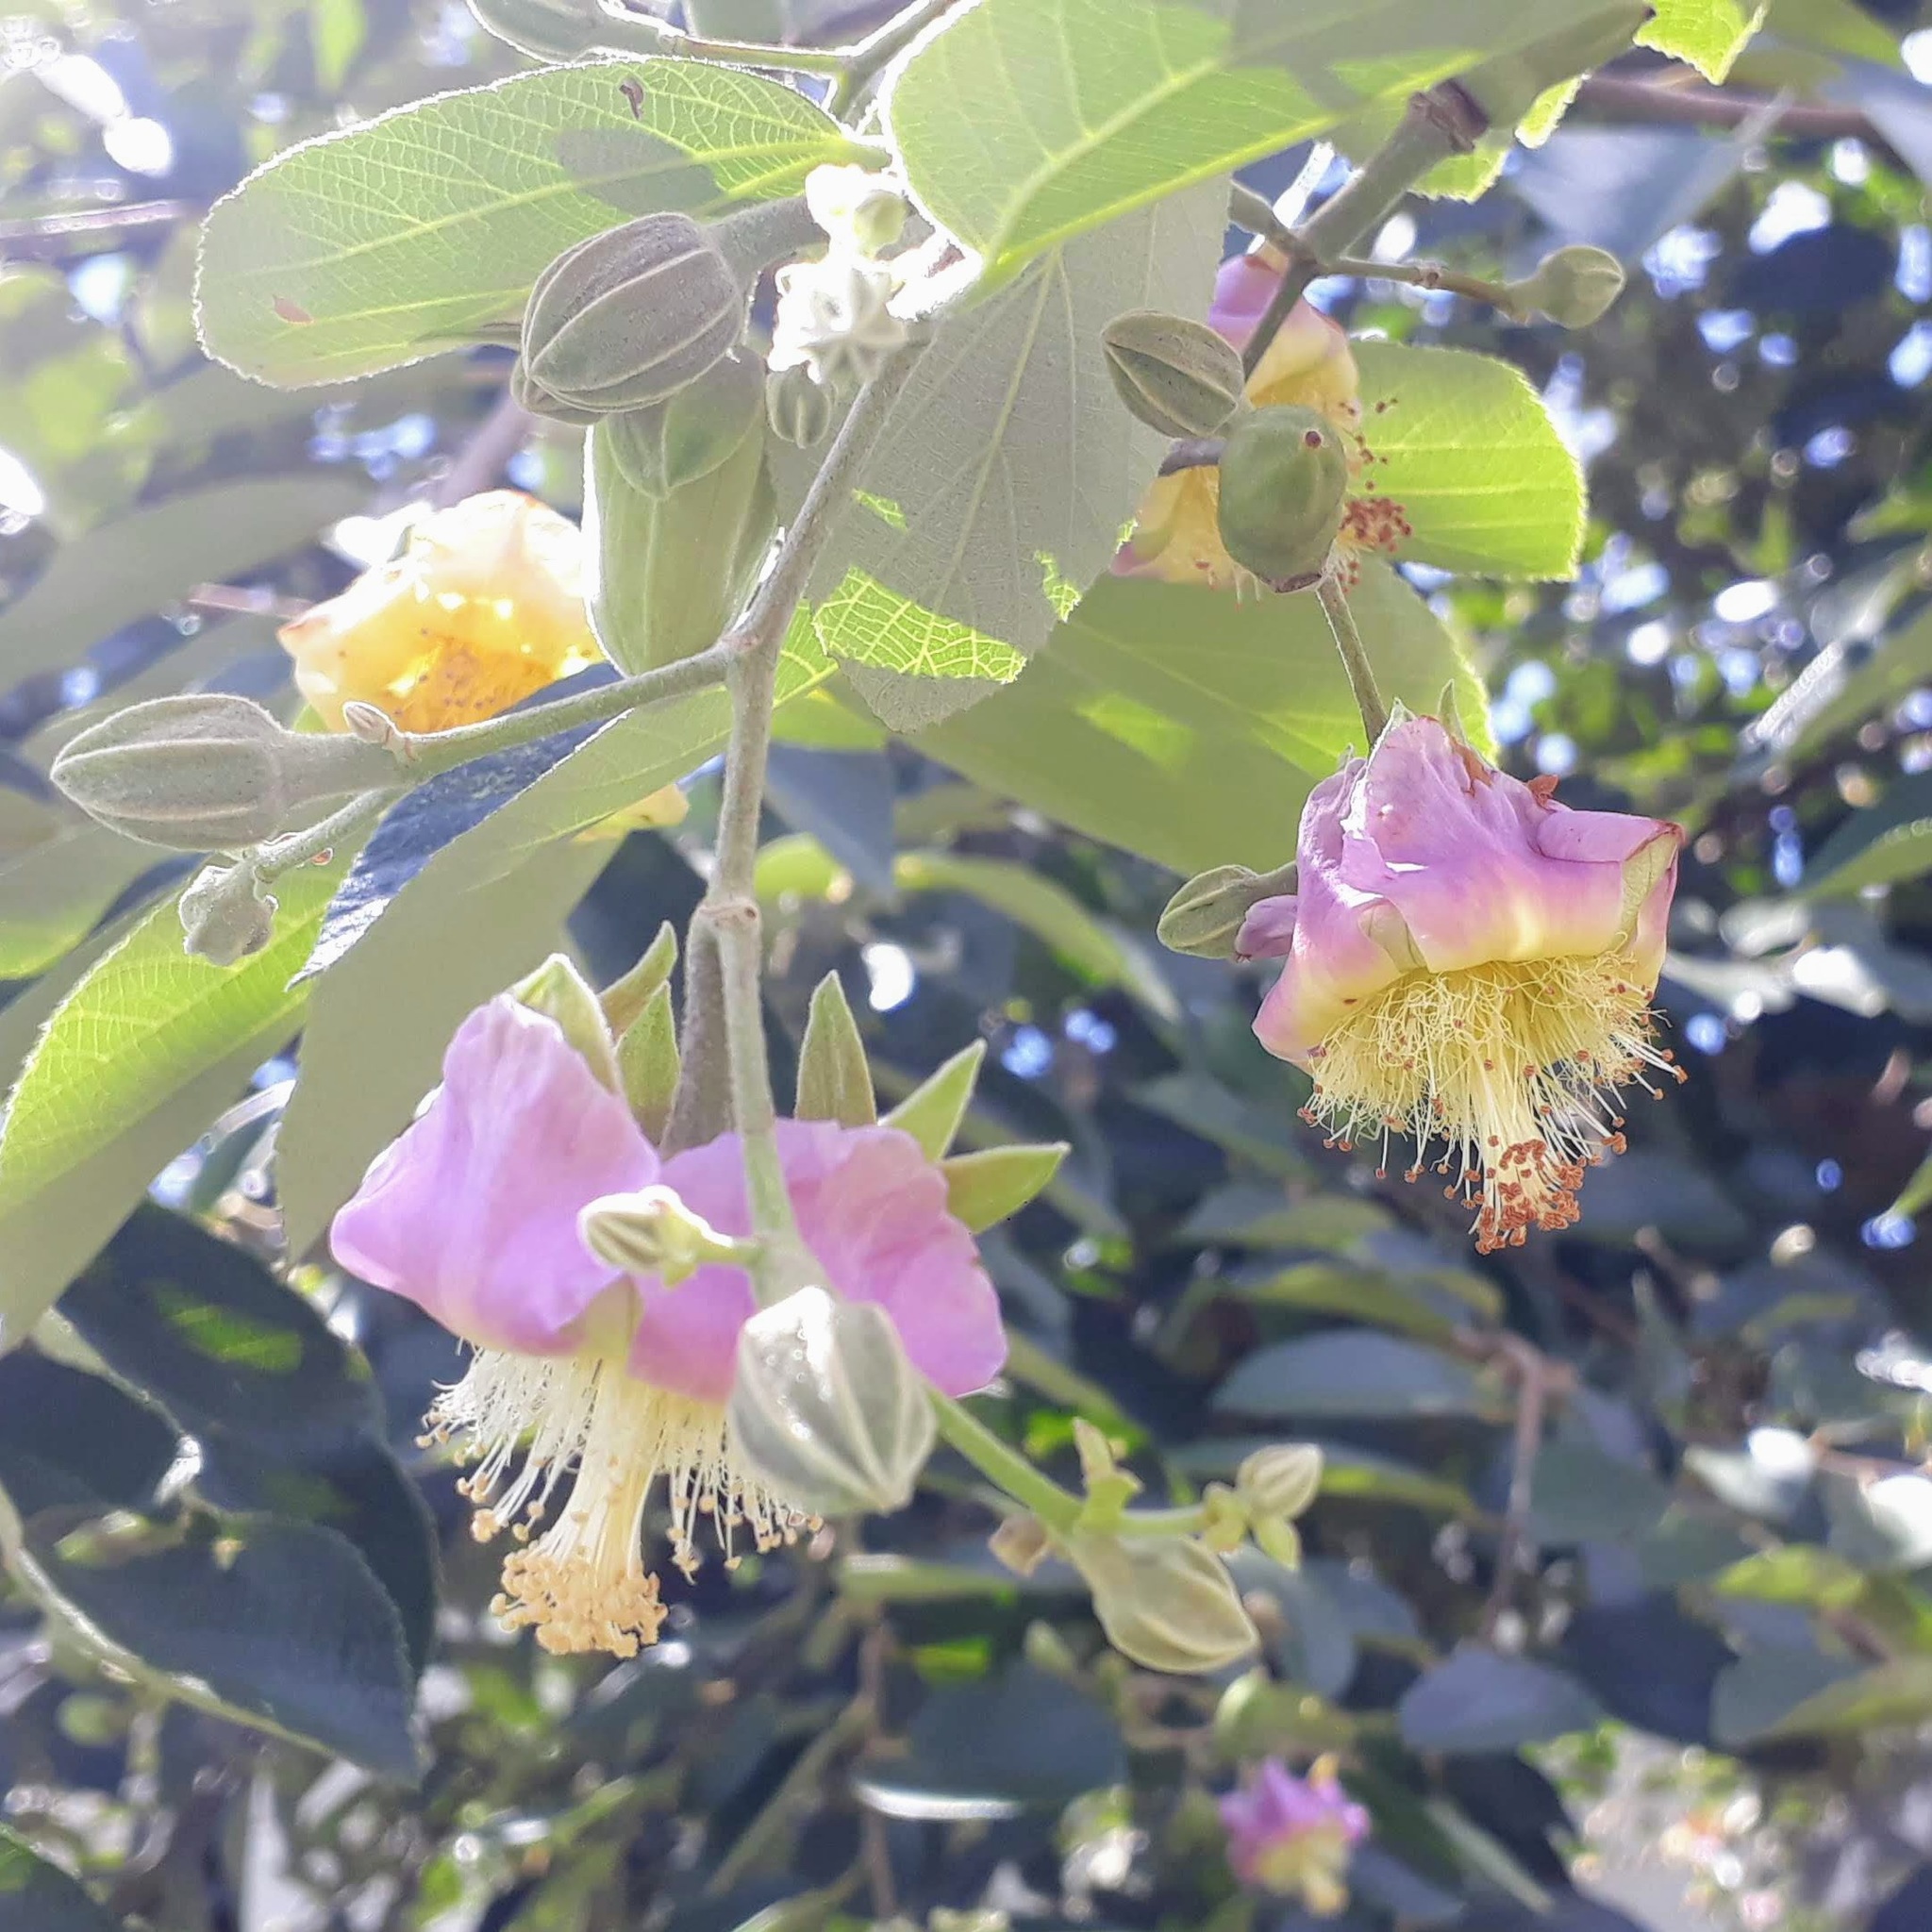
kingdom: Plantae
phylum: Tracheophyta
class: Magnoliopsida
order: Malvales
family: Malvaceae
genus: Luehea
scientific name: Luehea divaricata
